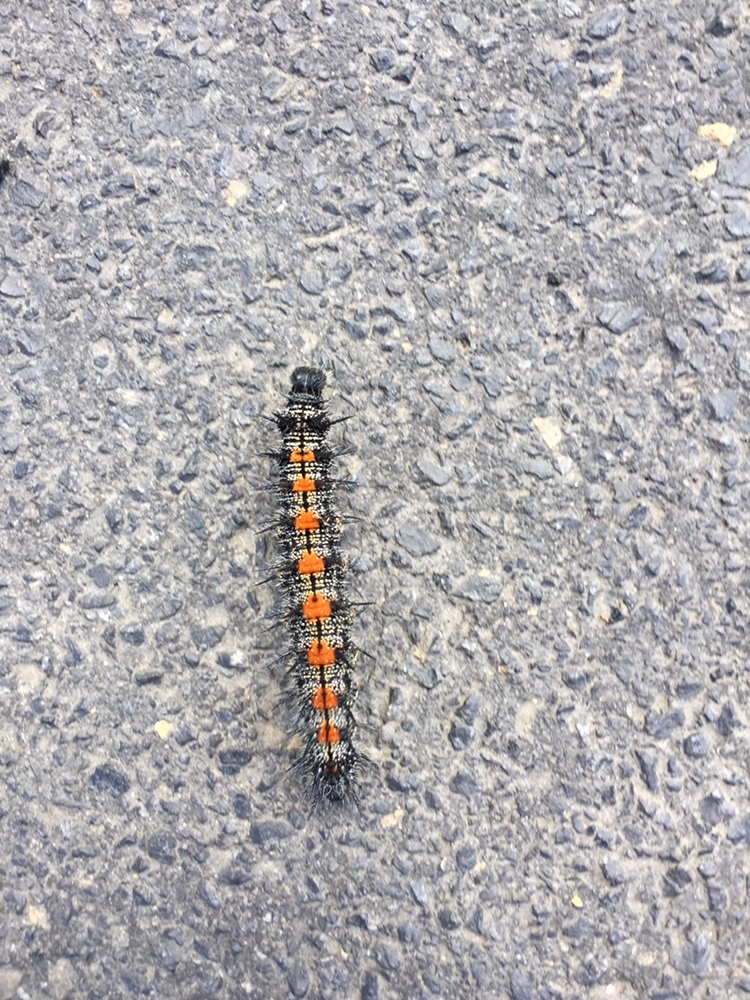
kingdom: Animalia
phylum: Arthropoda
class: Insecta
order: Lepidoptera
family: Nymphalidae
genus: Nymphalis
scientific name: Nymphalis antiopa
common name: Camberwell beauty
